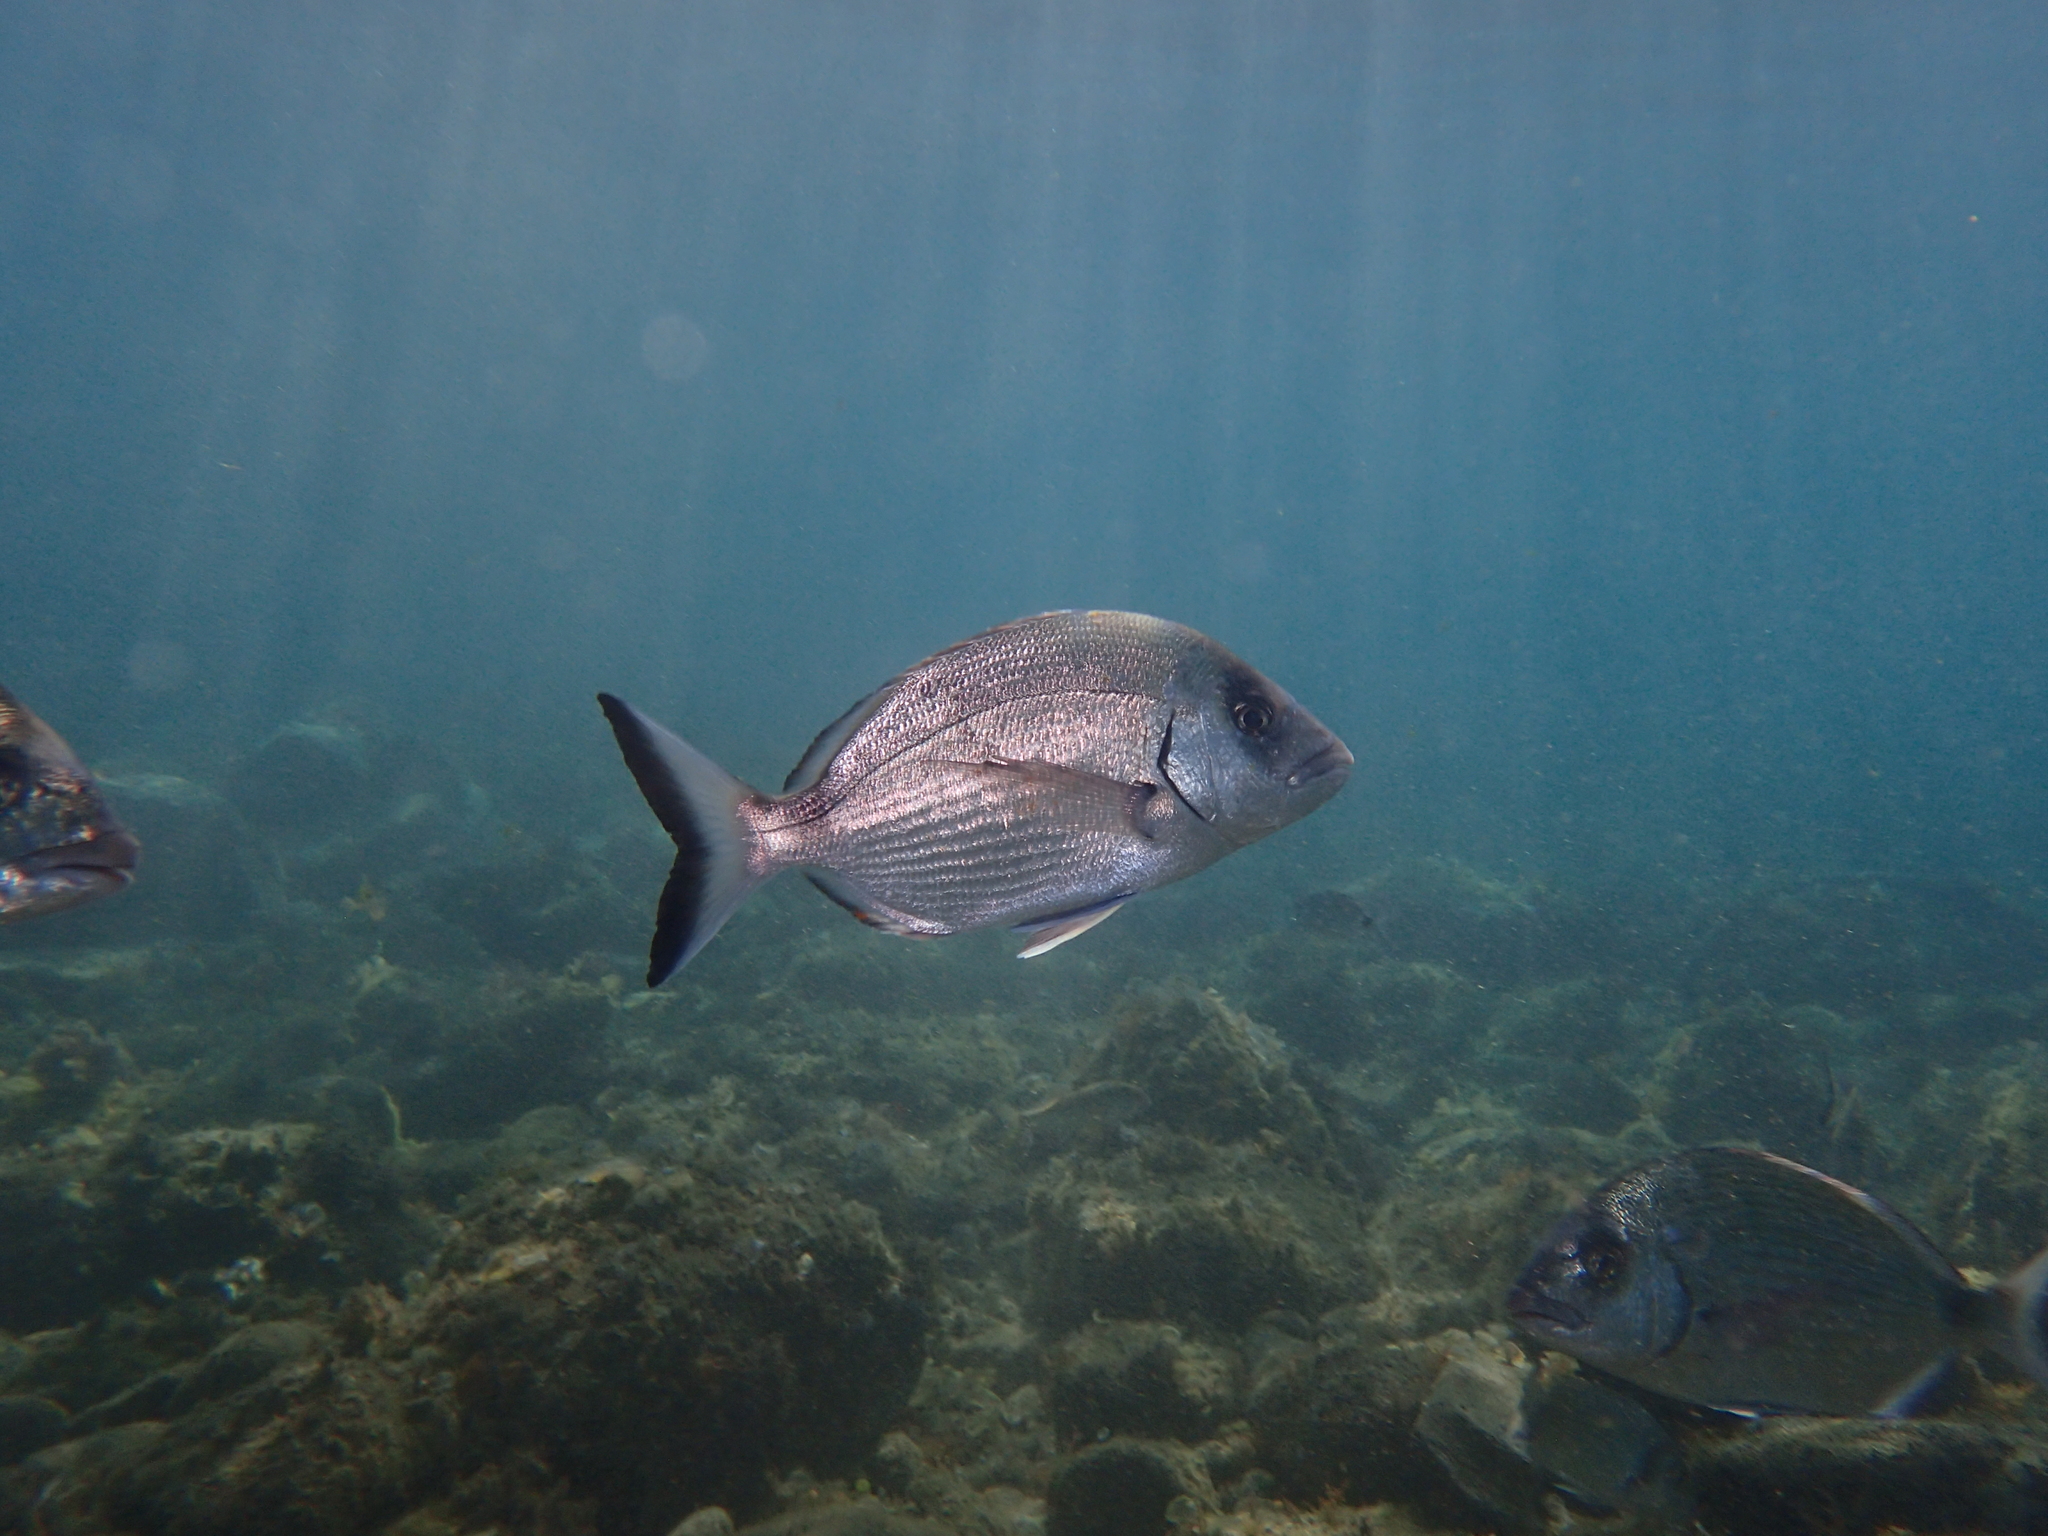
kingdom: Animalia
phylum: Chordata
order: Perciformes
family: Sparidae
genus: Diplodus
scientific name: Diplodus sargus
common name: White seabream
